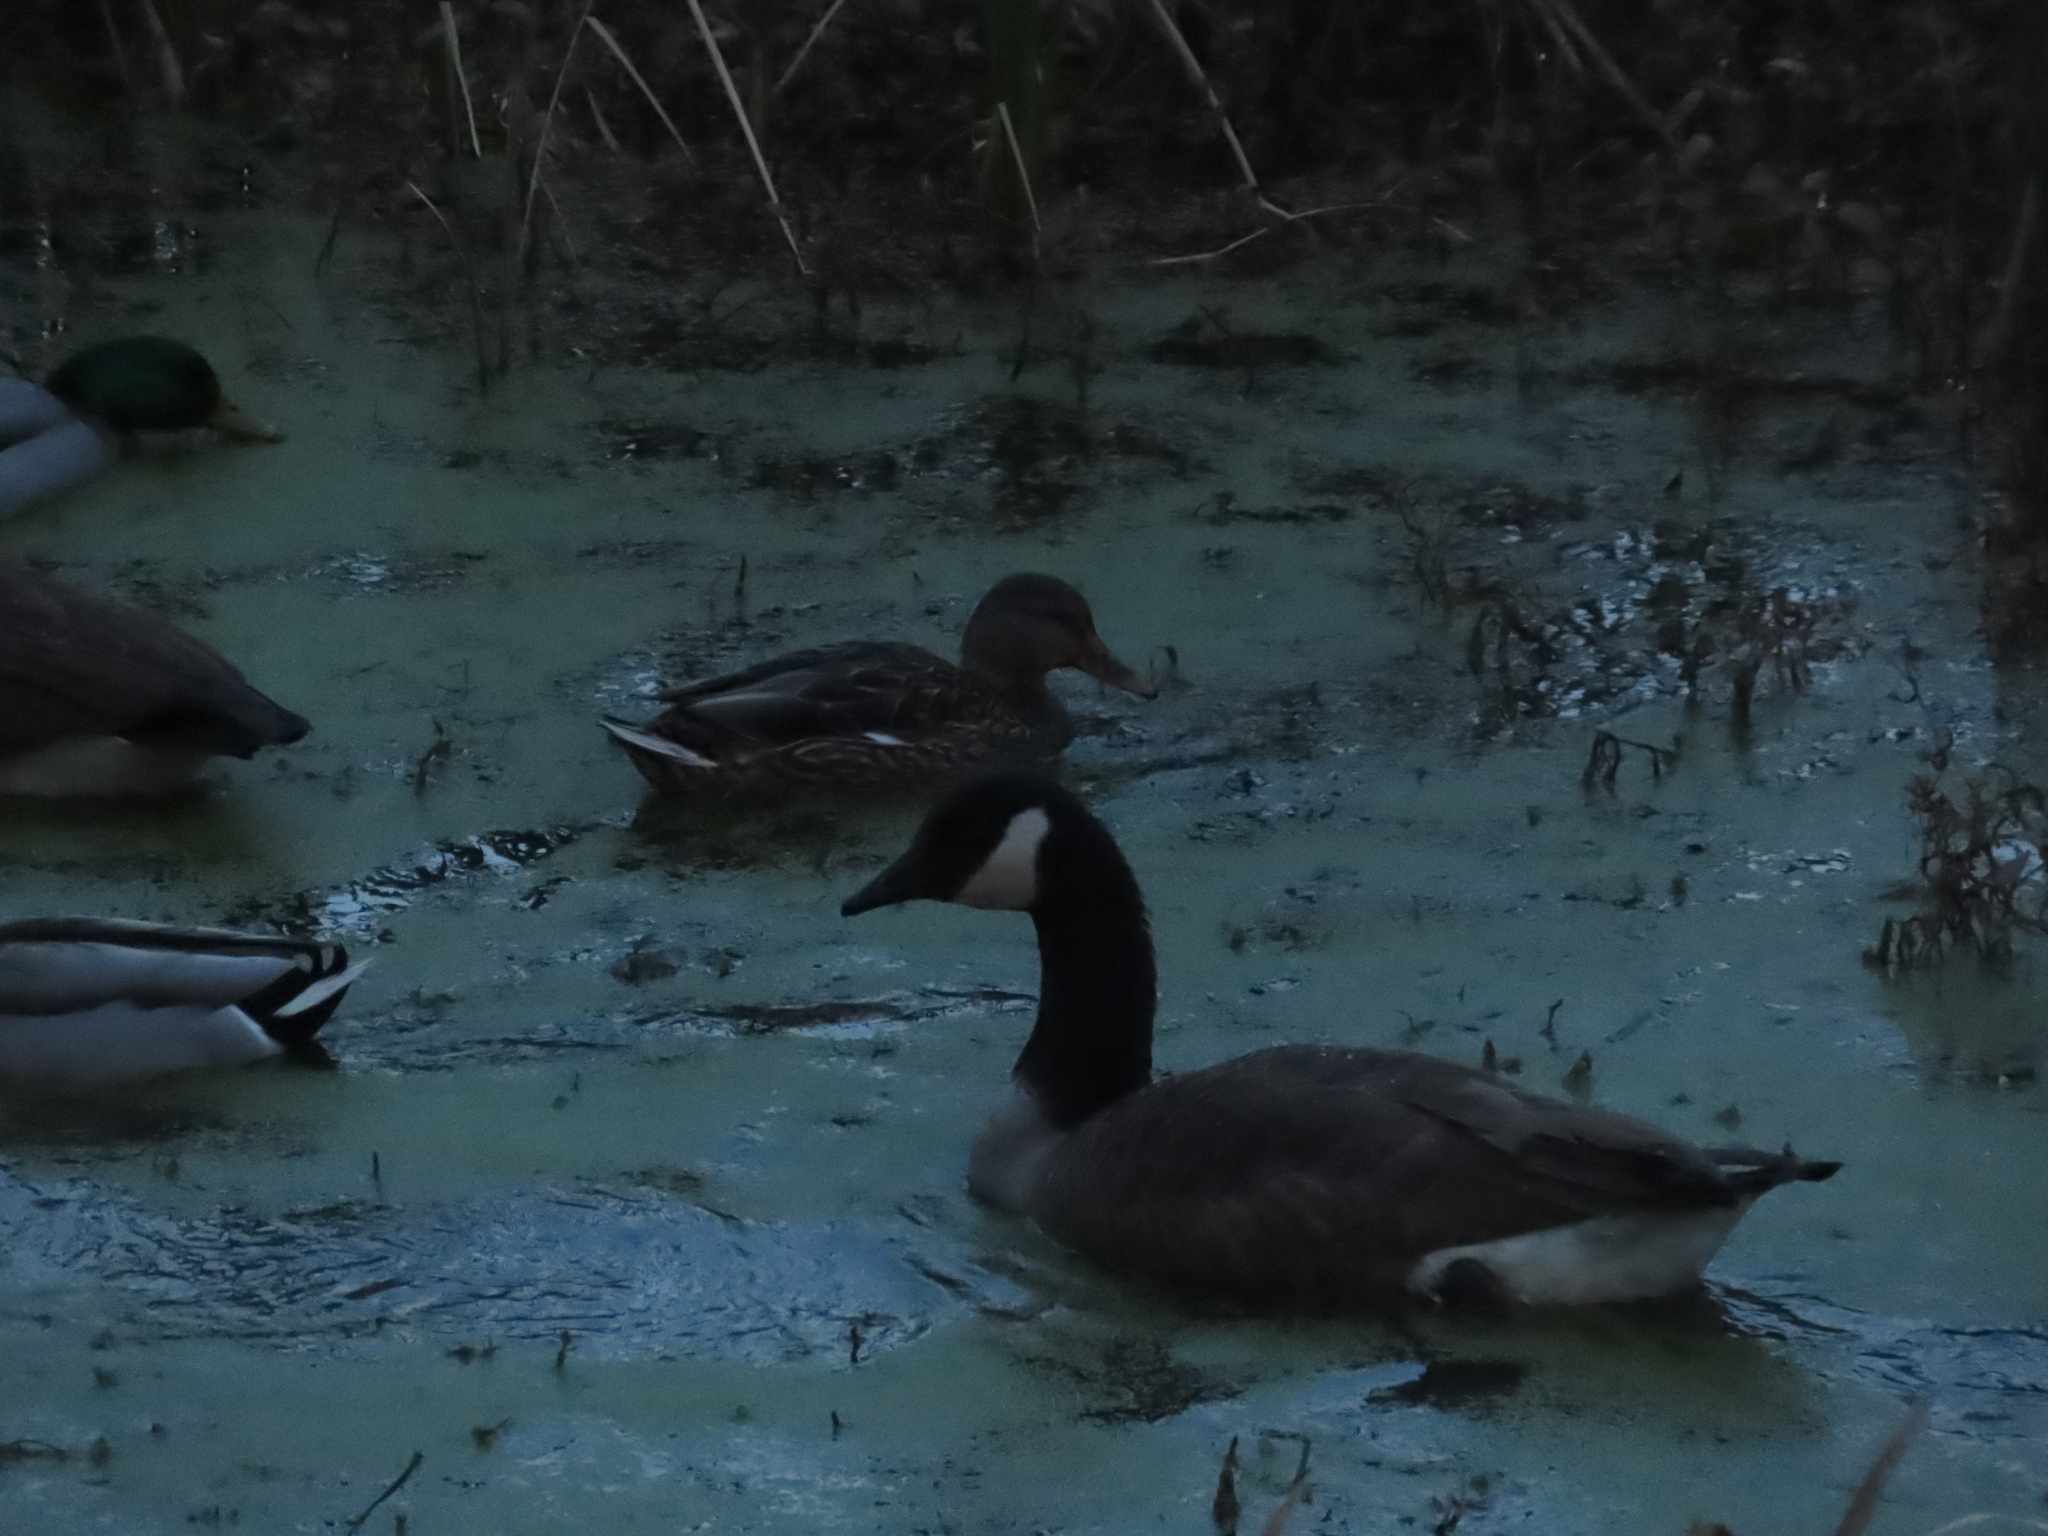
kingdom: Animalia
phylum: Chordata
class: Aves
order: Anseriformes
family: Anatidae
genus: Branta
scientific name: Branta canadensis
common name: Canada goose
